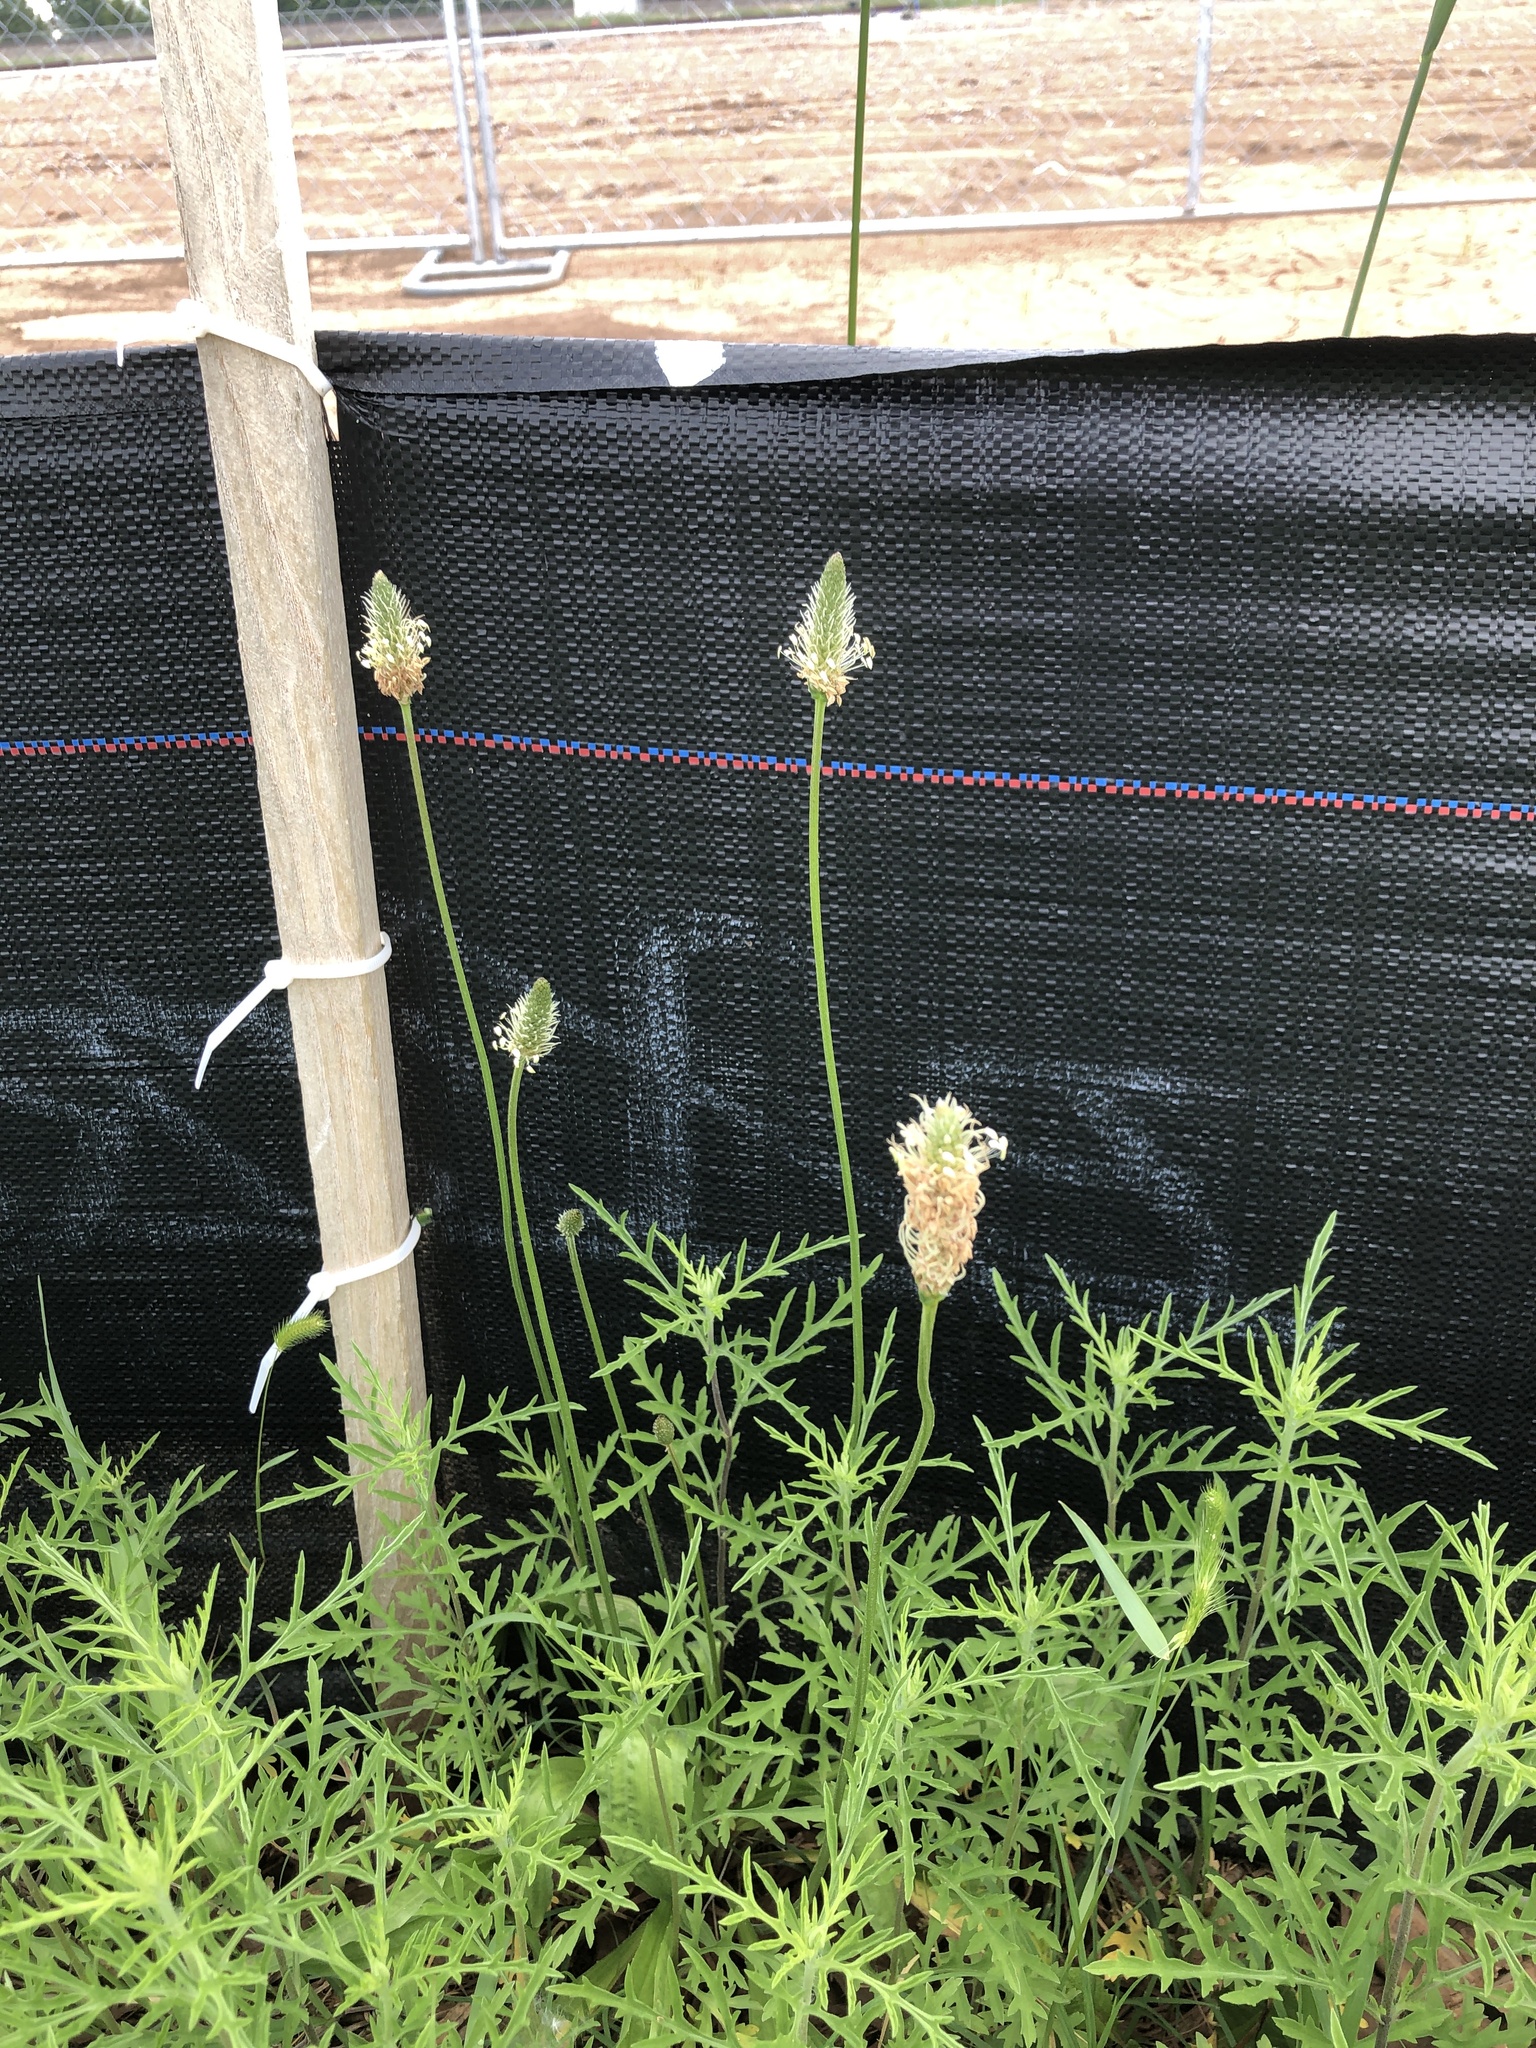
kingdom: Plantae
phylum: Tracheophyta
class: Magnoliopsida
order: Lamiales
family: Plantaginaceae
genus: Plantago
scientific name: Plantago lanceolata
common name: Ribwort plantain
